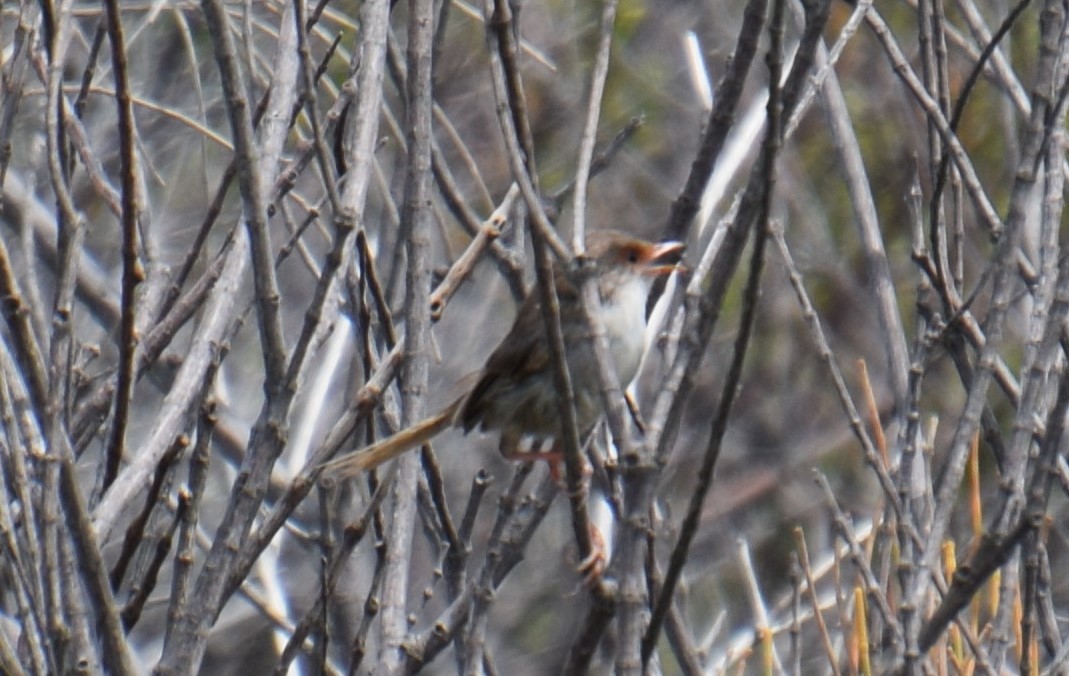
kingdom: Animalia
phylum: Chordata
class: Aves
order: Passeriformes
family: Maluridae
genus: Malurus
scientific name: Malurus cyaneus
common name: Superb fairywren
